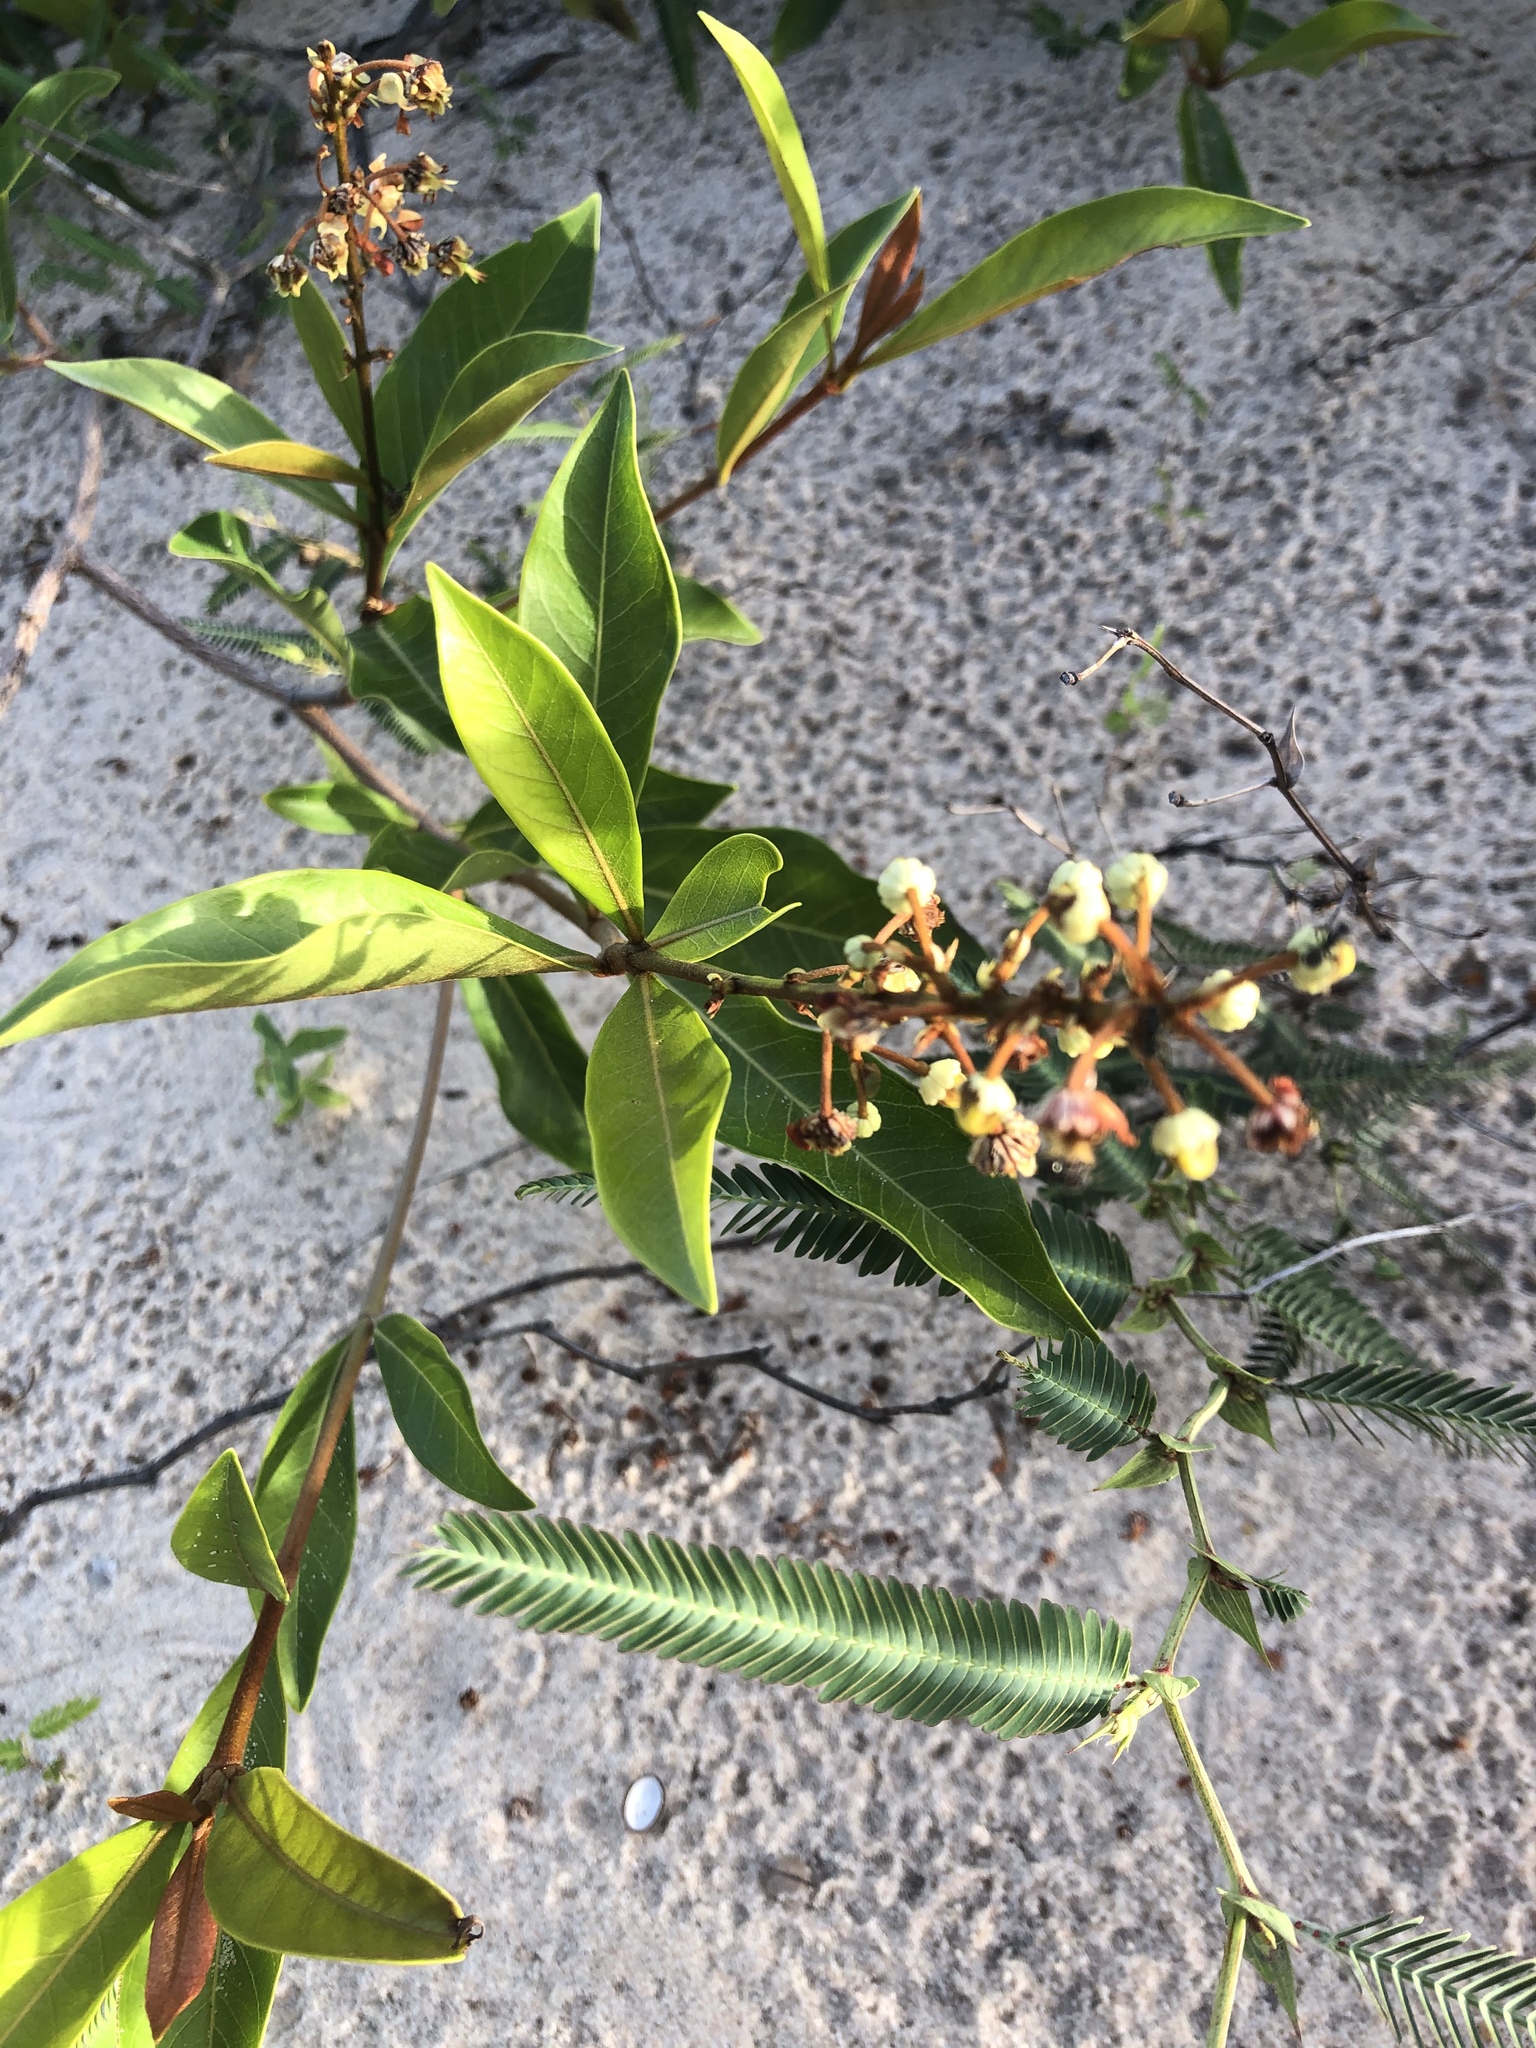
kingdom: Plantae
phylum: Tracheophyta
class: Magnoliopsida
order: Malpighiales
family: Malpighiaceae
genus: Byrsonima
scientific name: Byrsonima crassifolia
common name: Golden spoon
